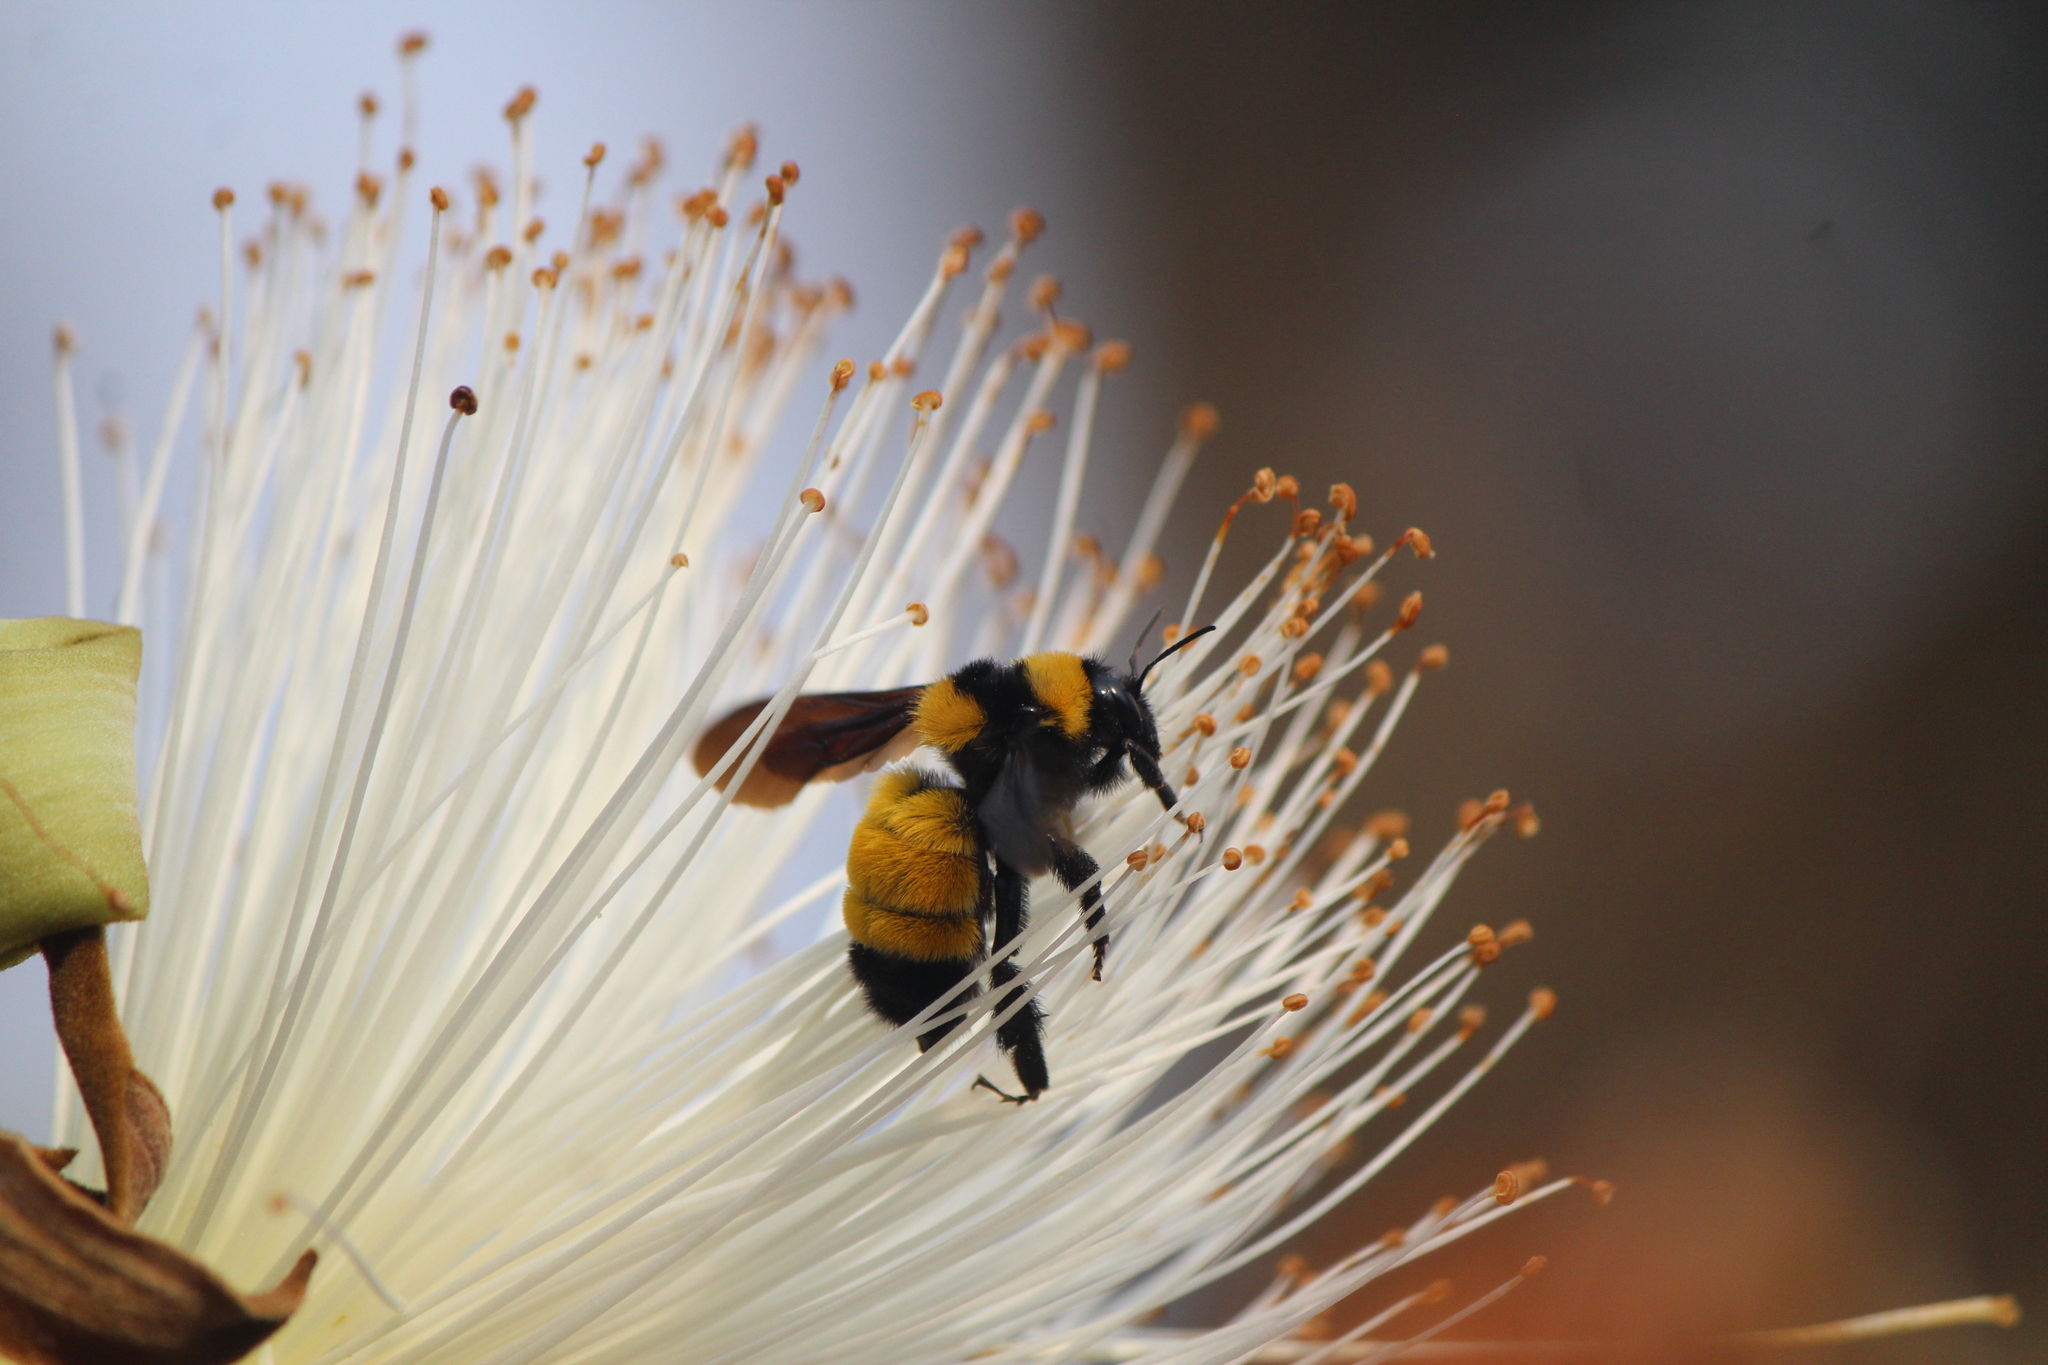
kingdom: Animalia
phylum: Arthropoda
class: Insecta
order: Hymenoptera
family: Apidae
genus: Bombus
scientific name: Bombus sonorus
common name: Sonoran bumble bee
